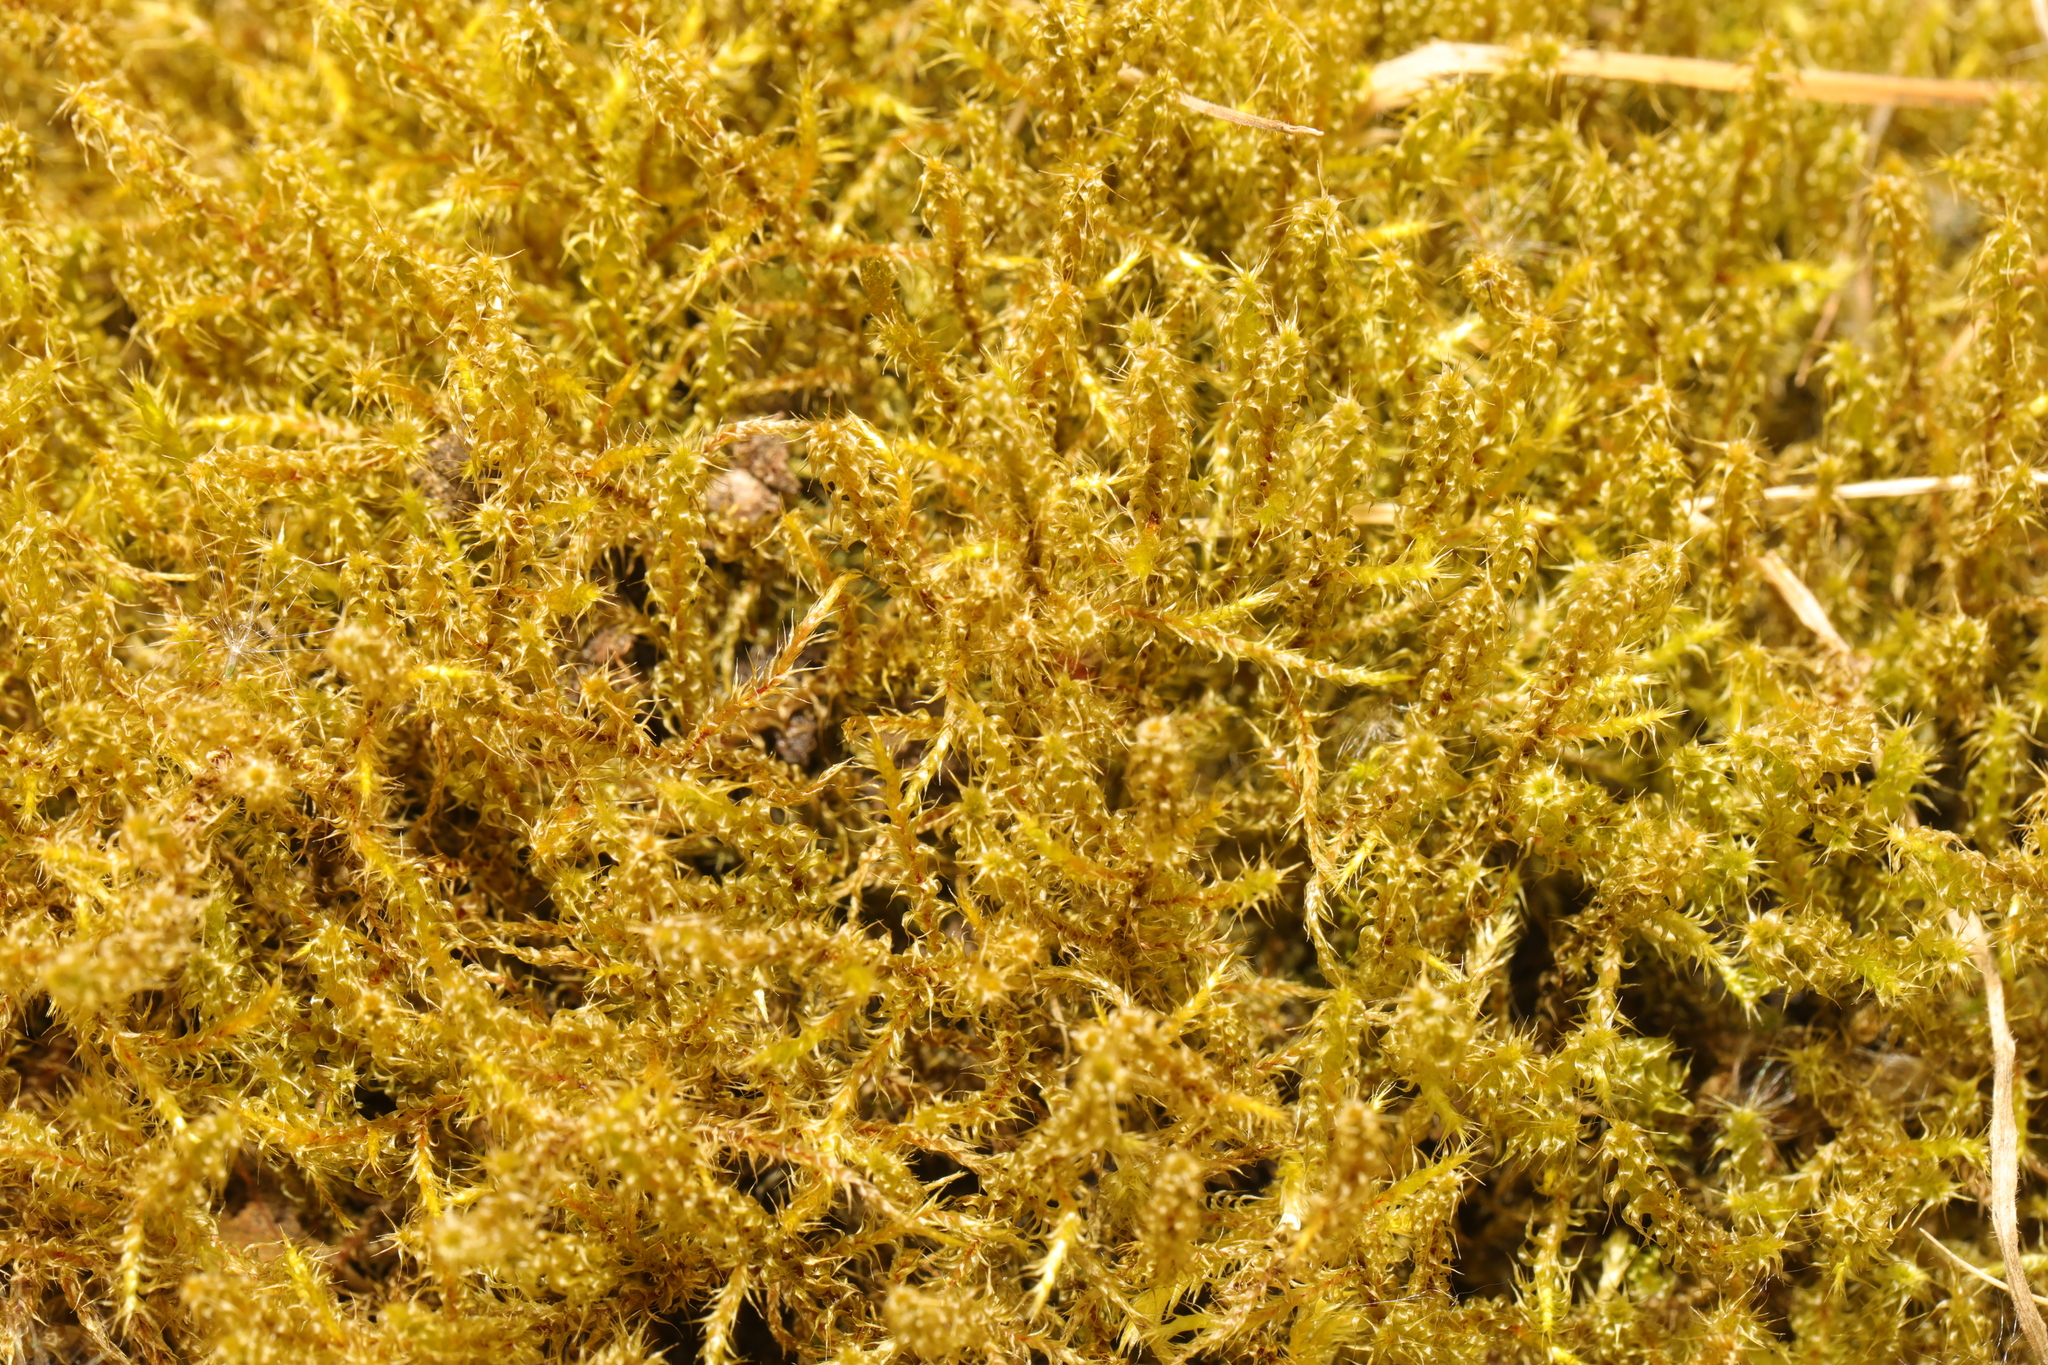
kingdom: Plantae
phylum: Bryophyta
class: Bryopsida
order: Hypnales
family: Hylocomiaceae
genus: Rhytidiadelphus
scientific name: Rhytidiadelphus squarrosus
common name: Springy turf-moss
